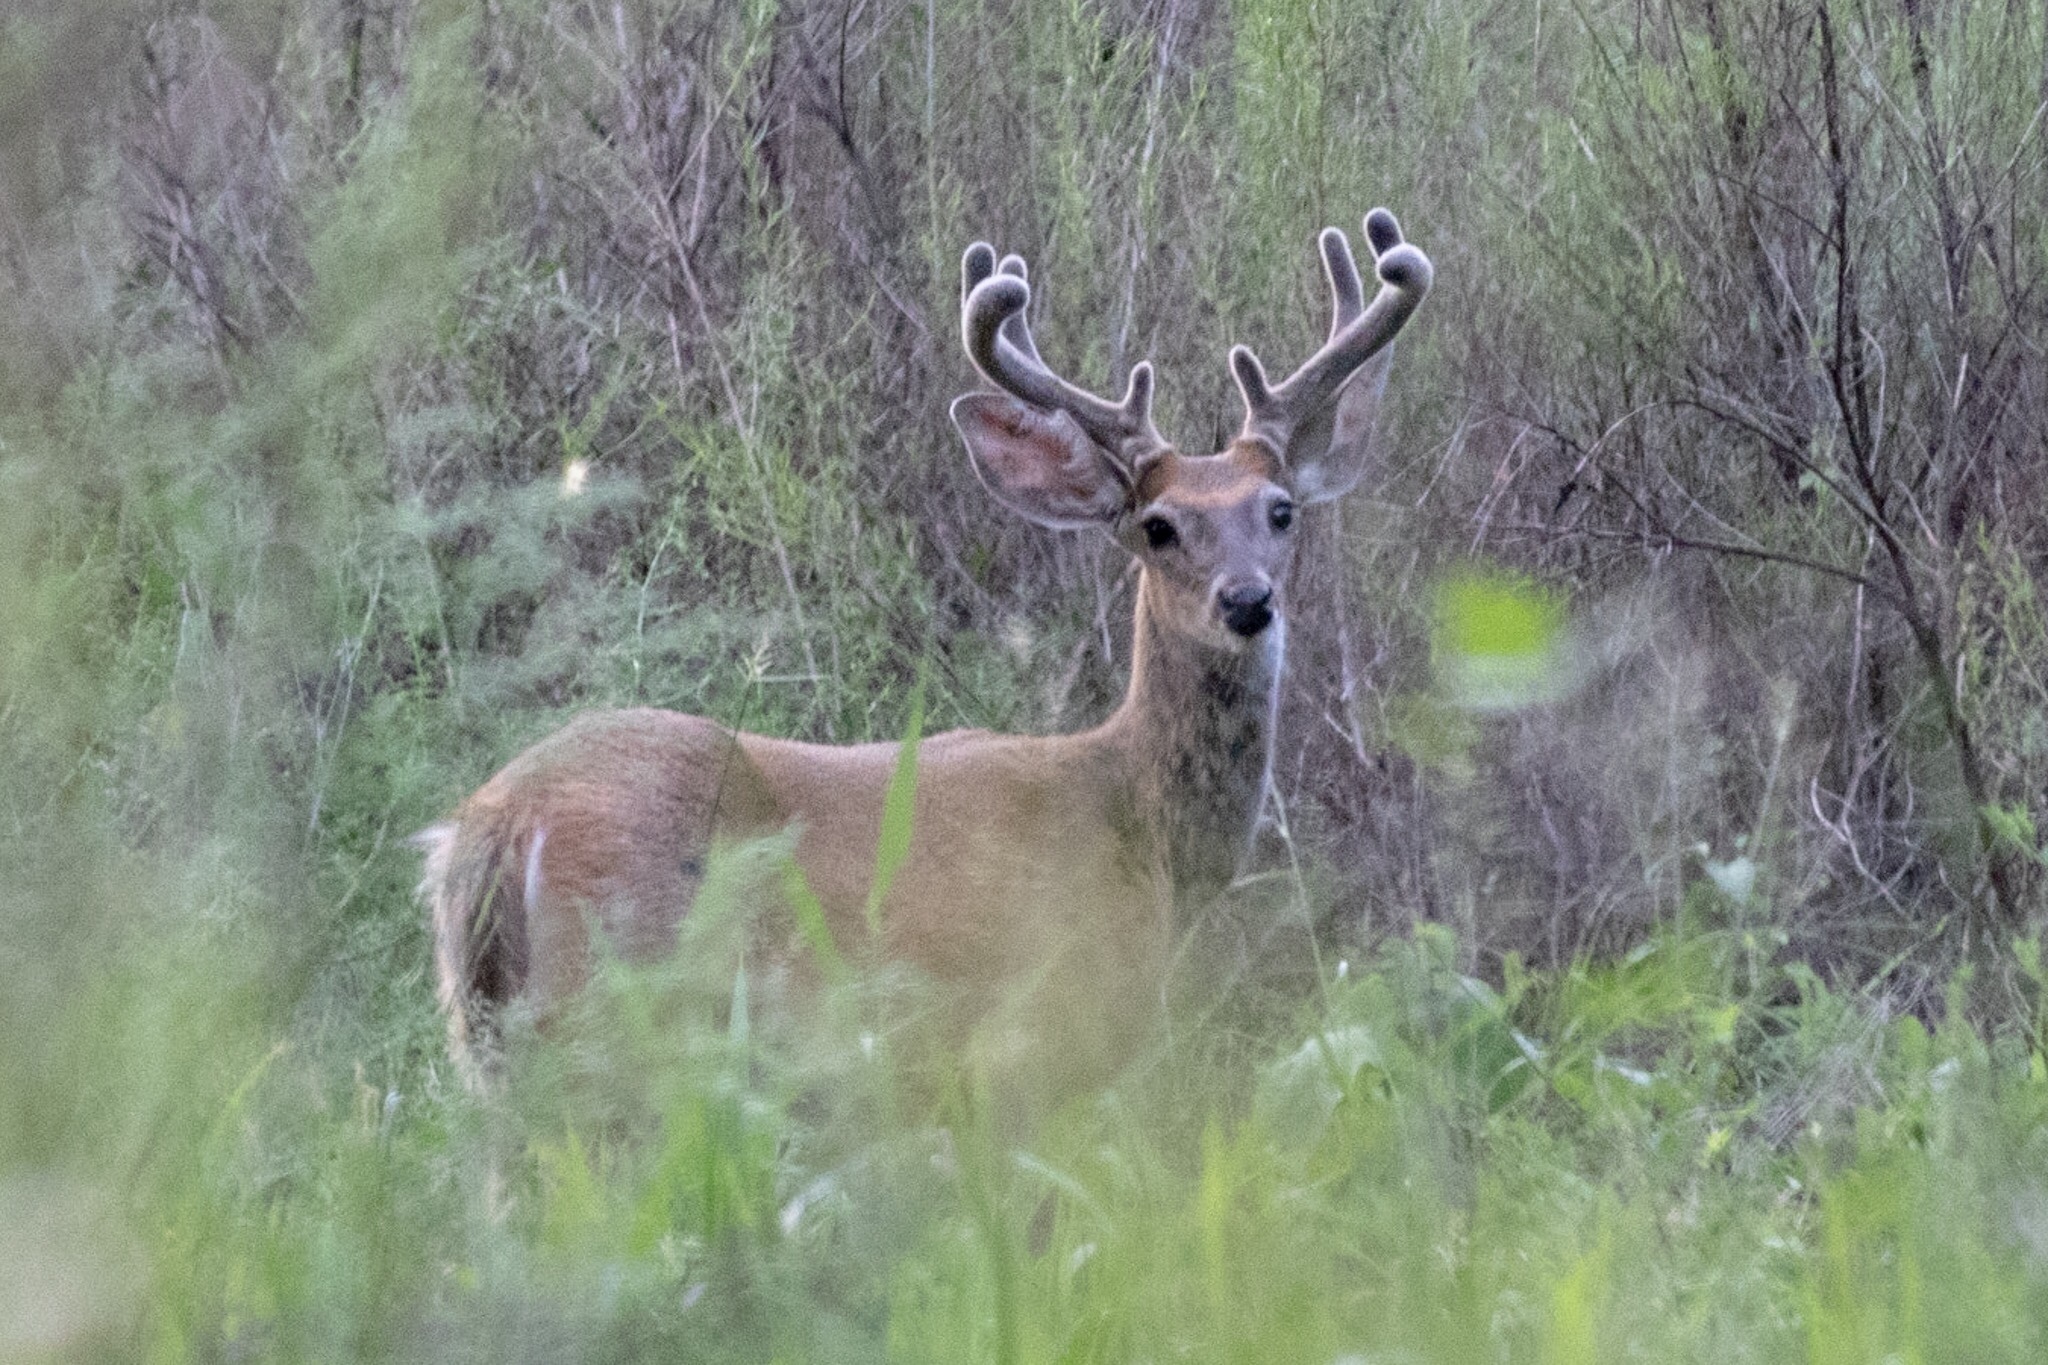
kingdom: Animalia
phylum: Chordata
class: Mammalia
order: Artiodactyla
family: Cervidae
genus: Odocoileus
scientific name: Odocoileus virginianus
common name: White-tailed deer
